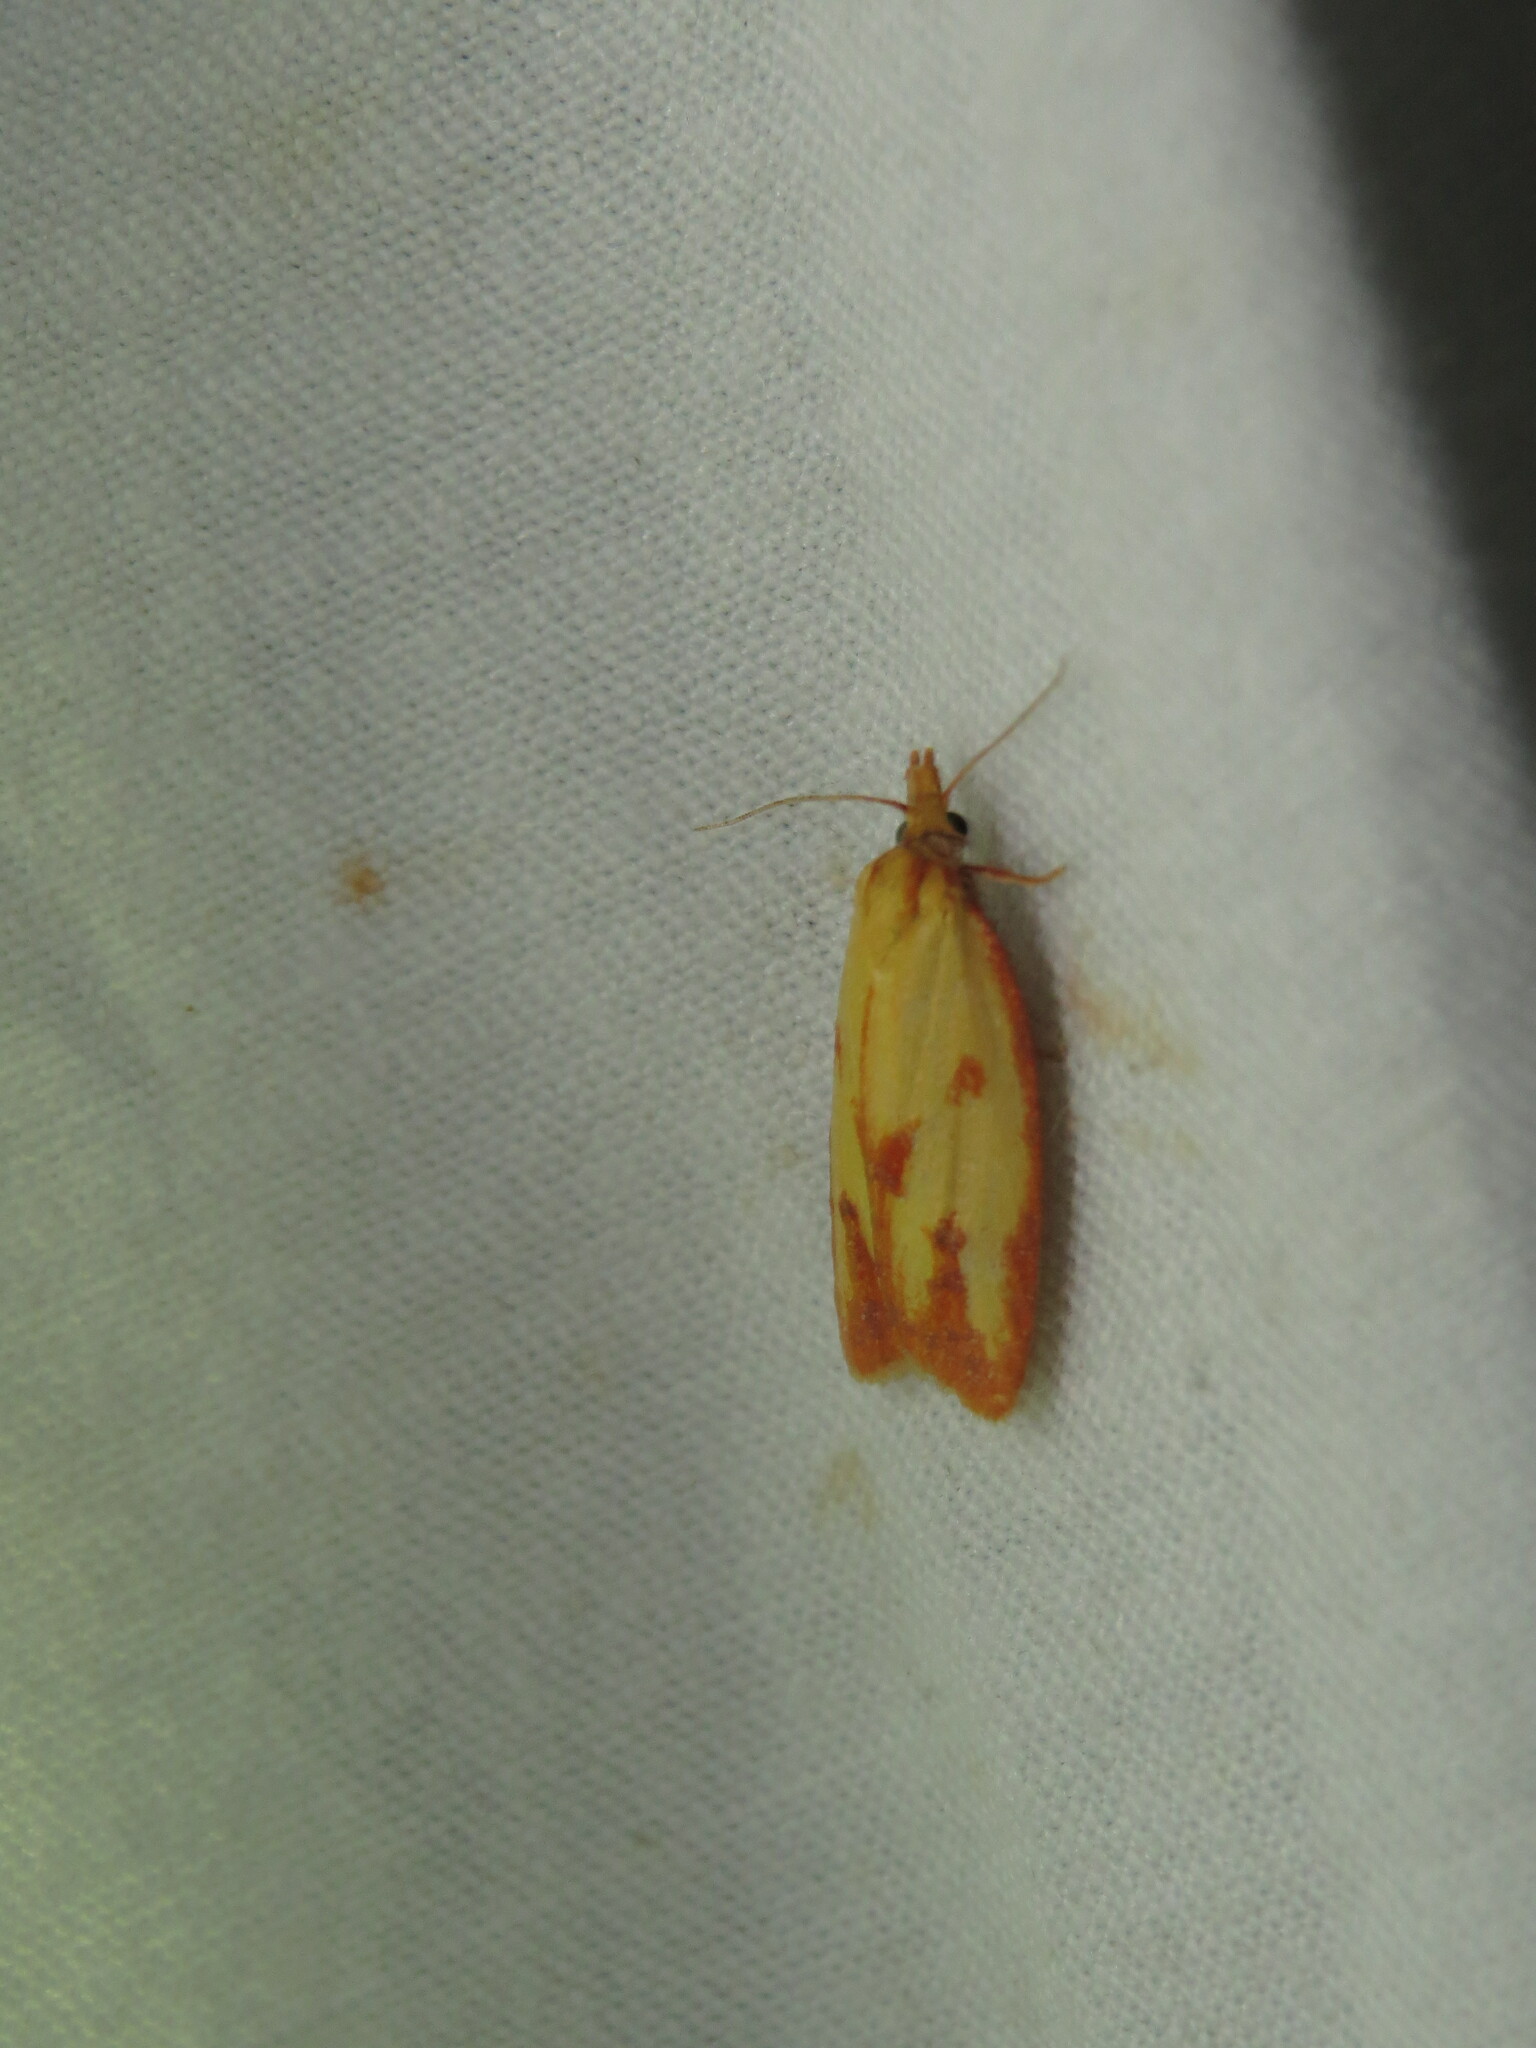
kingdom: Animalia
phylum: Arthropoda
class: Insecta
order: Lepidoptera
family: Tortricidae
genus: Sparganothis
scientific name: Sparganothis sulfureana
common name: Sparganothis fruitworm moth
